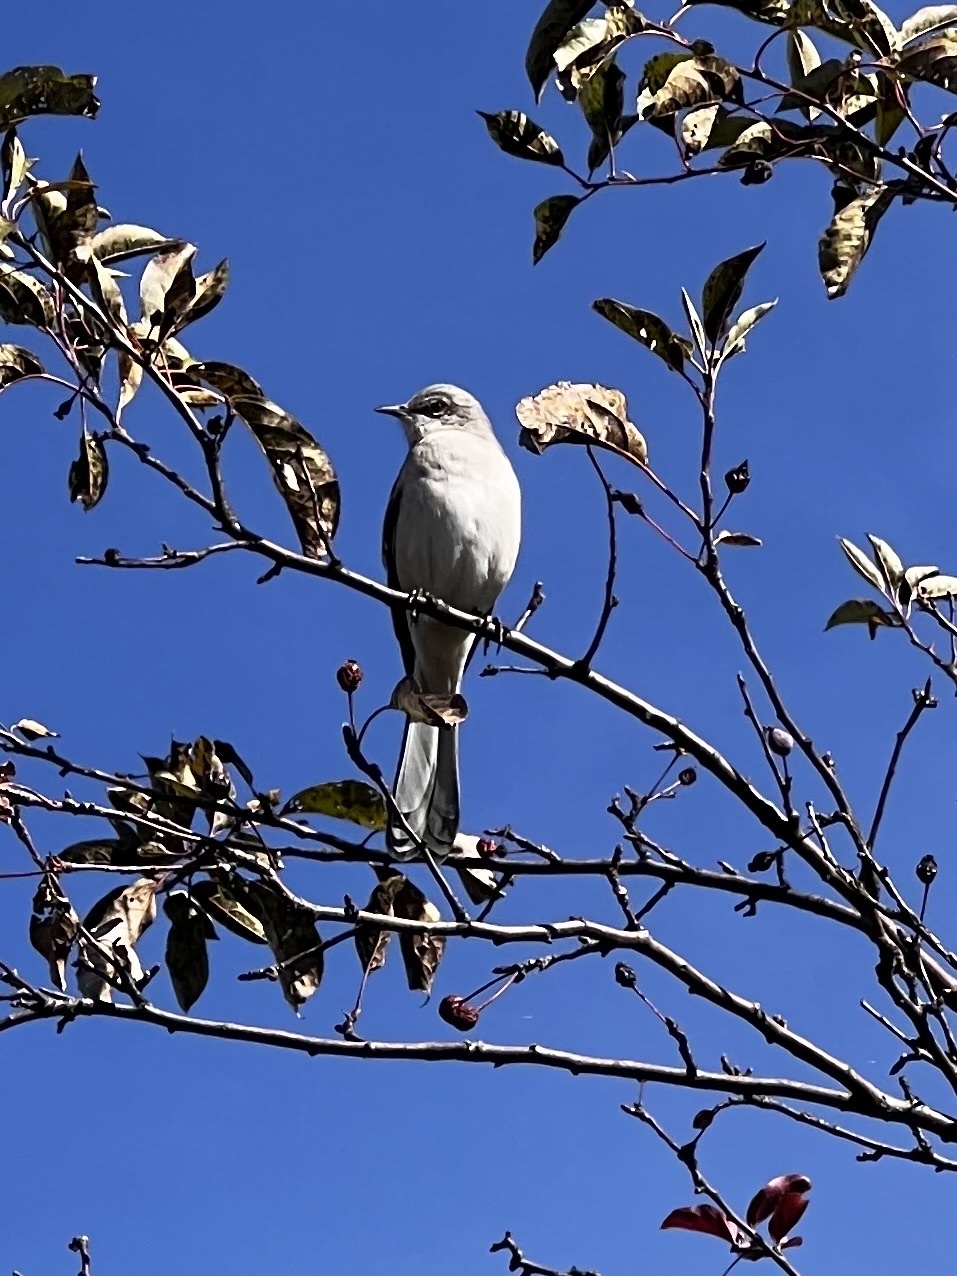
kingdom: Animalia
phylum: Chordata
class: Aves
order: Passeriformes
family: Mimidae
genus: Mimus
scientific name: Mimus polyglottos
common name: Northern mockingbird
